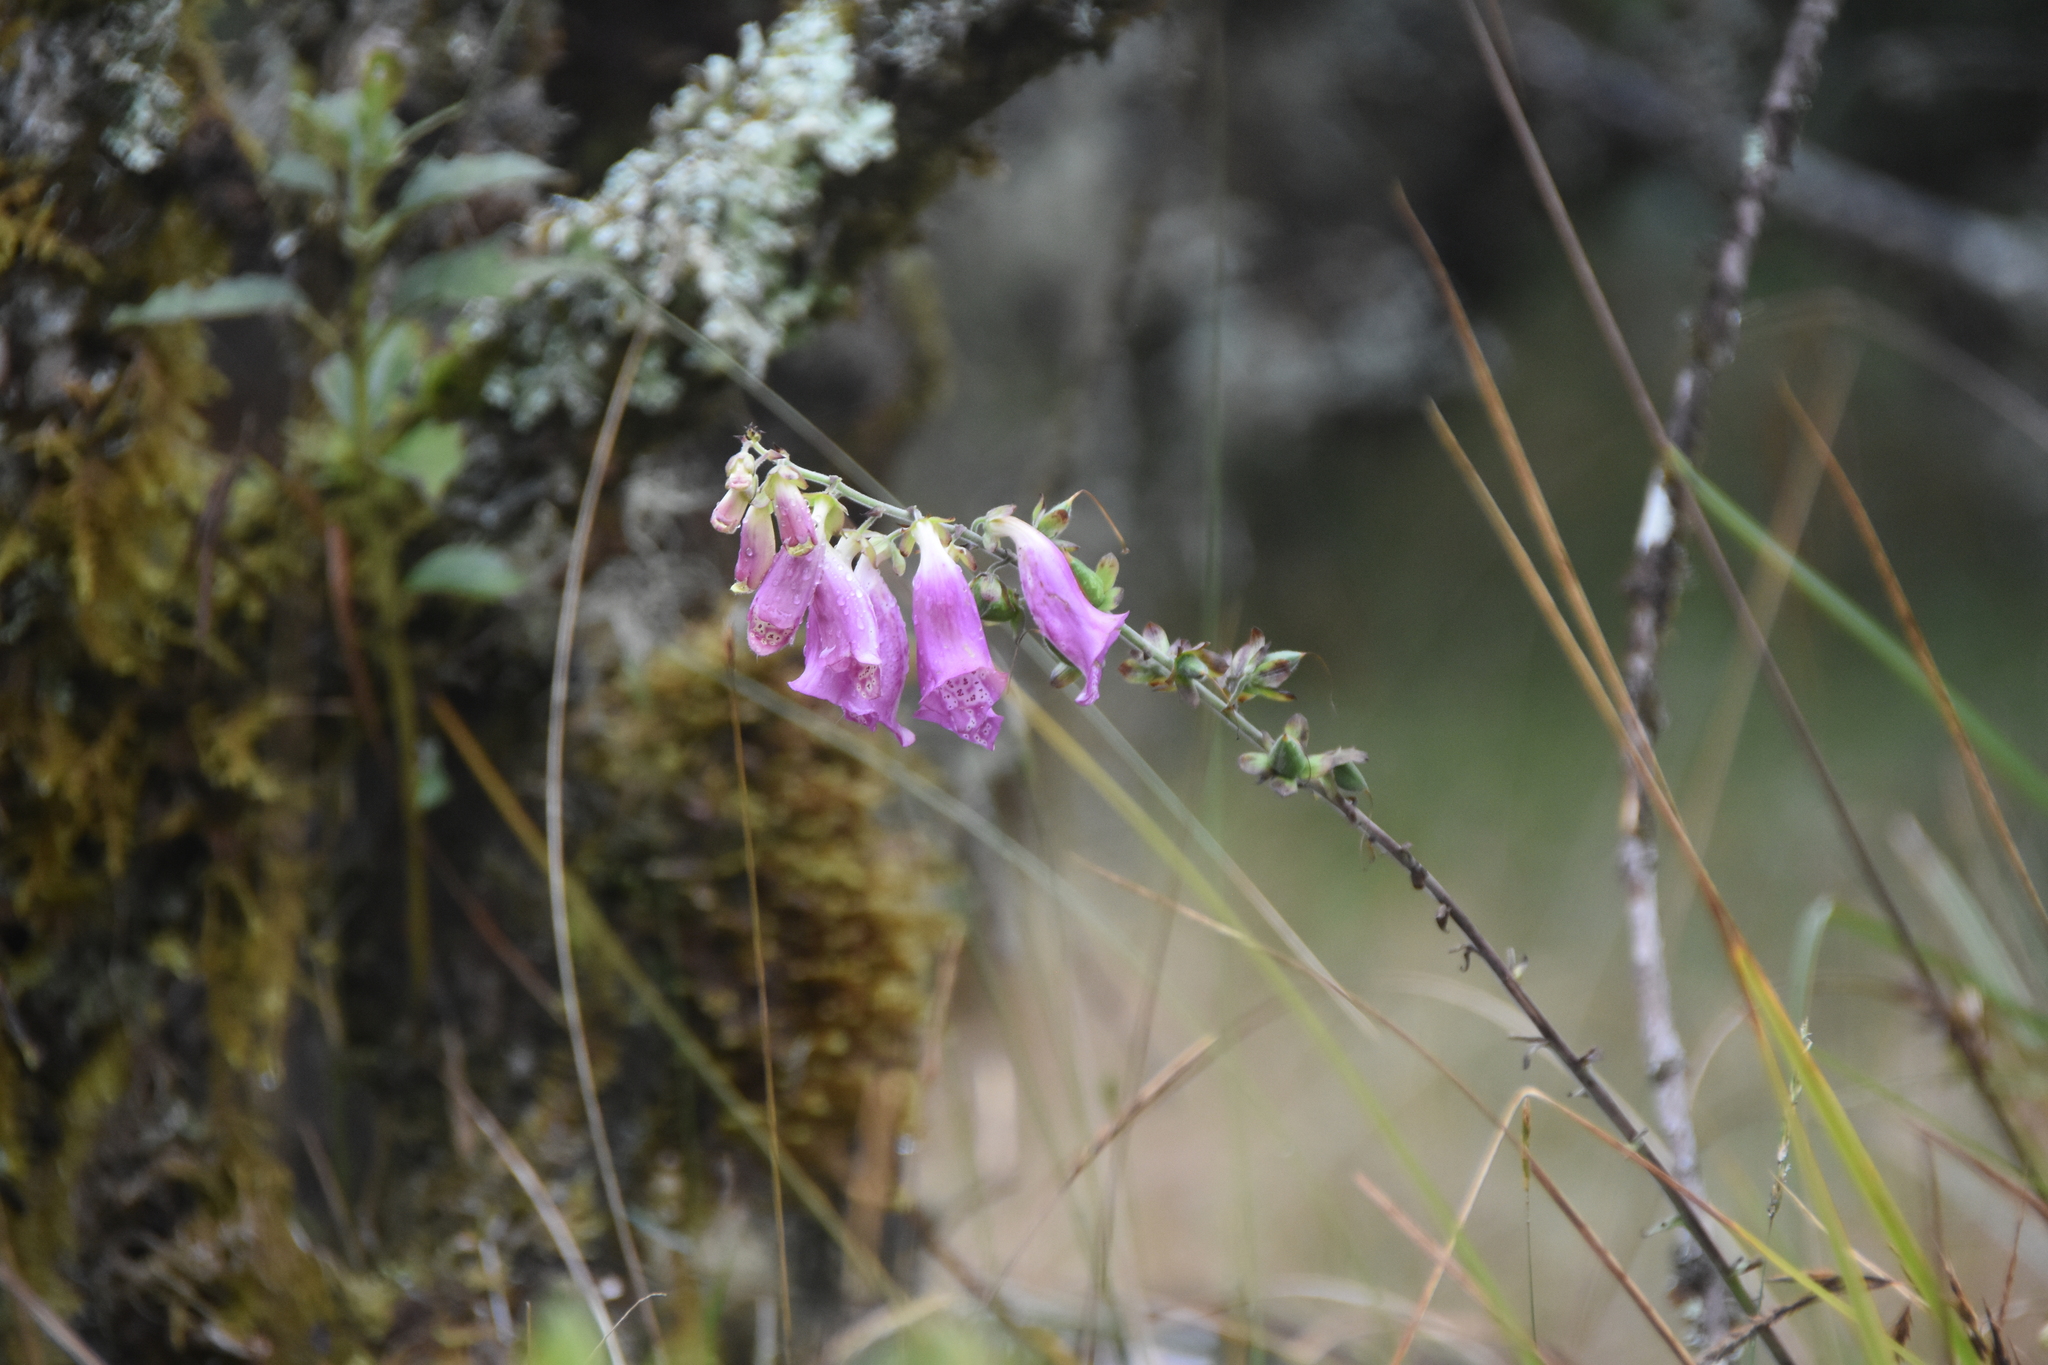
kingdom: Plantae
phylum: Tracheophyta
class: Magnoliopsida
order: Lamiales
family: Plantaginaceae
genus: Digitalis
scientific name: Digitalis purpurea
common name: Foxglove
